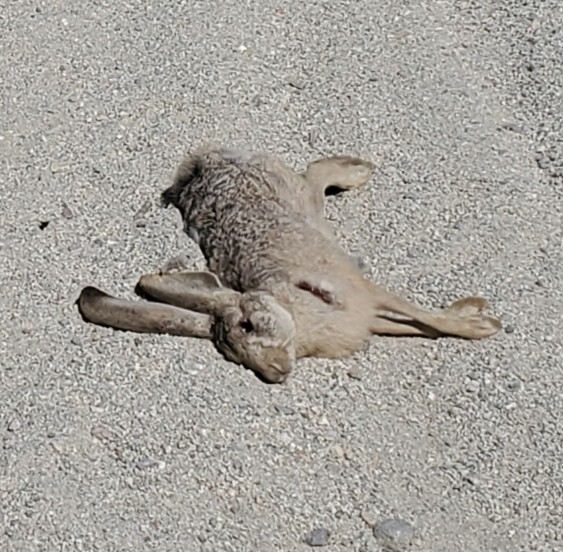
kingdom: Animalia
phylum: Chordata
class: Mammalia
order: Lagomorpha
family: Leporidae
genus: Lepus
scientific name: Lepus californicus
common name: Black-tailed jackrabbit
